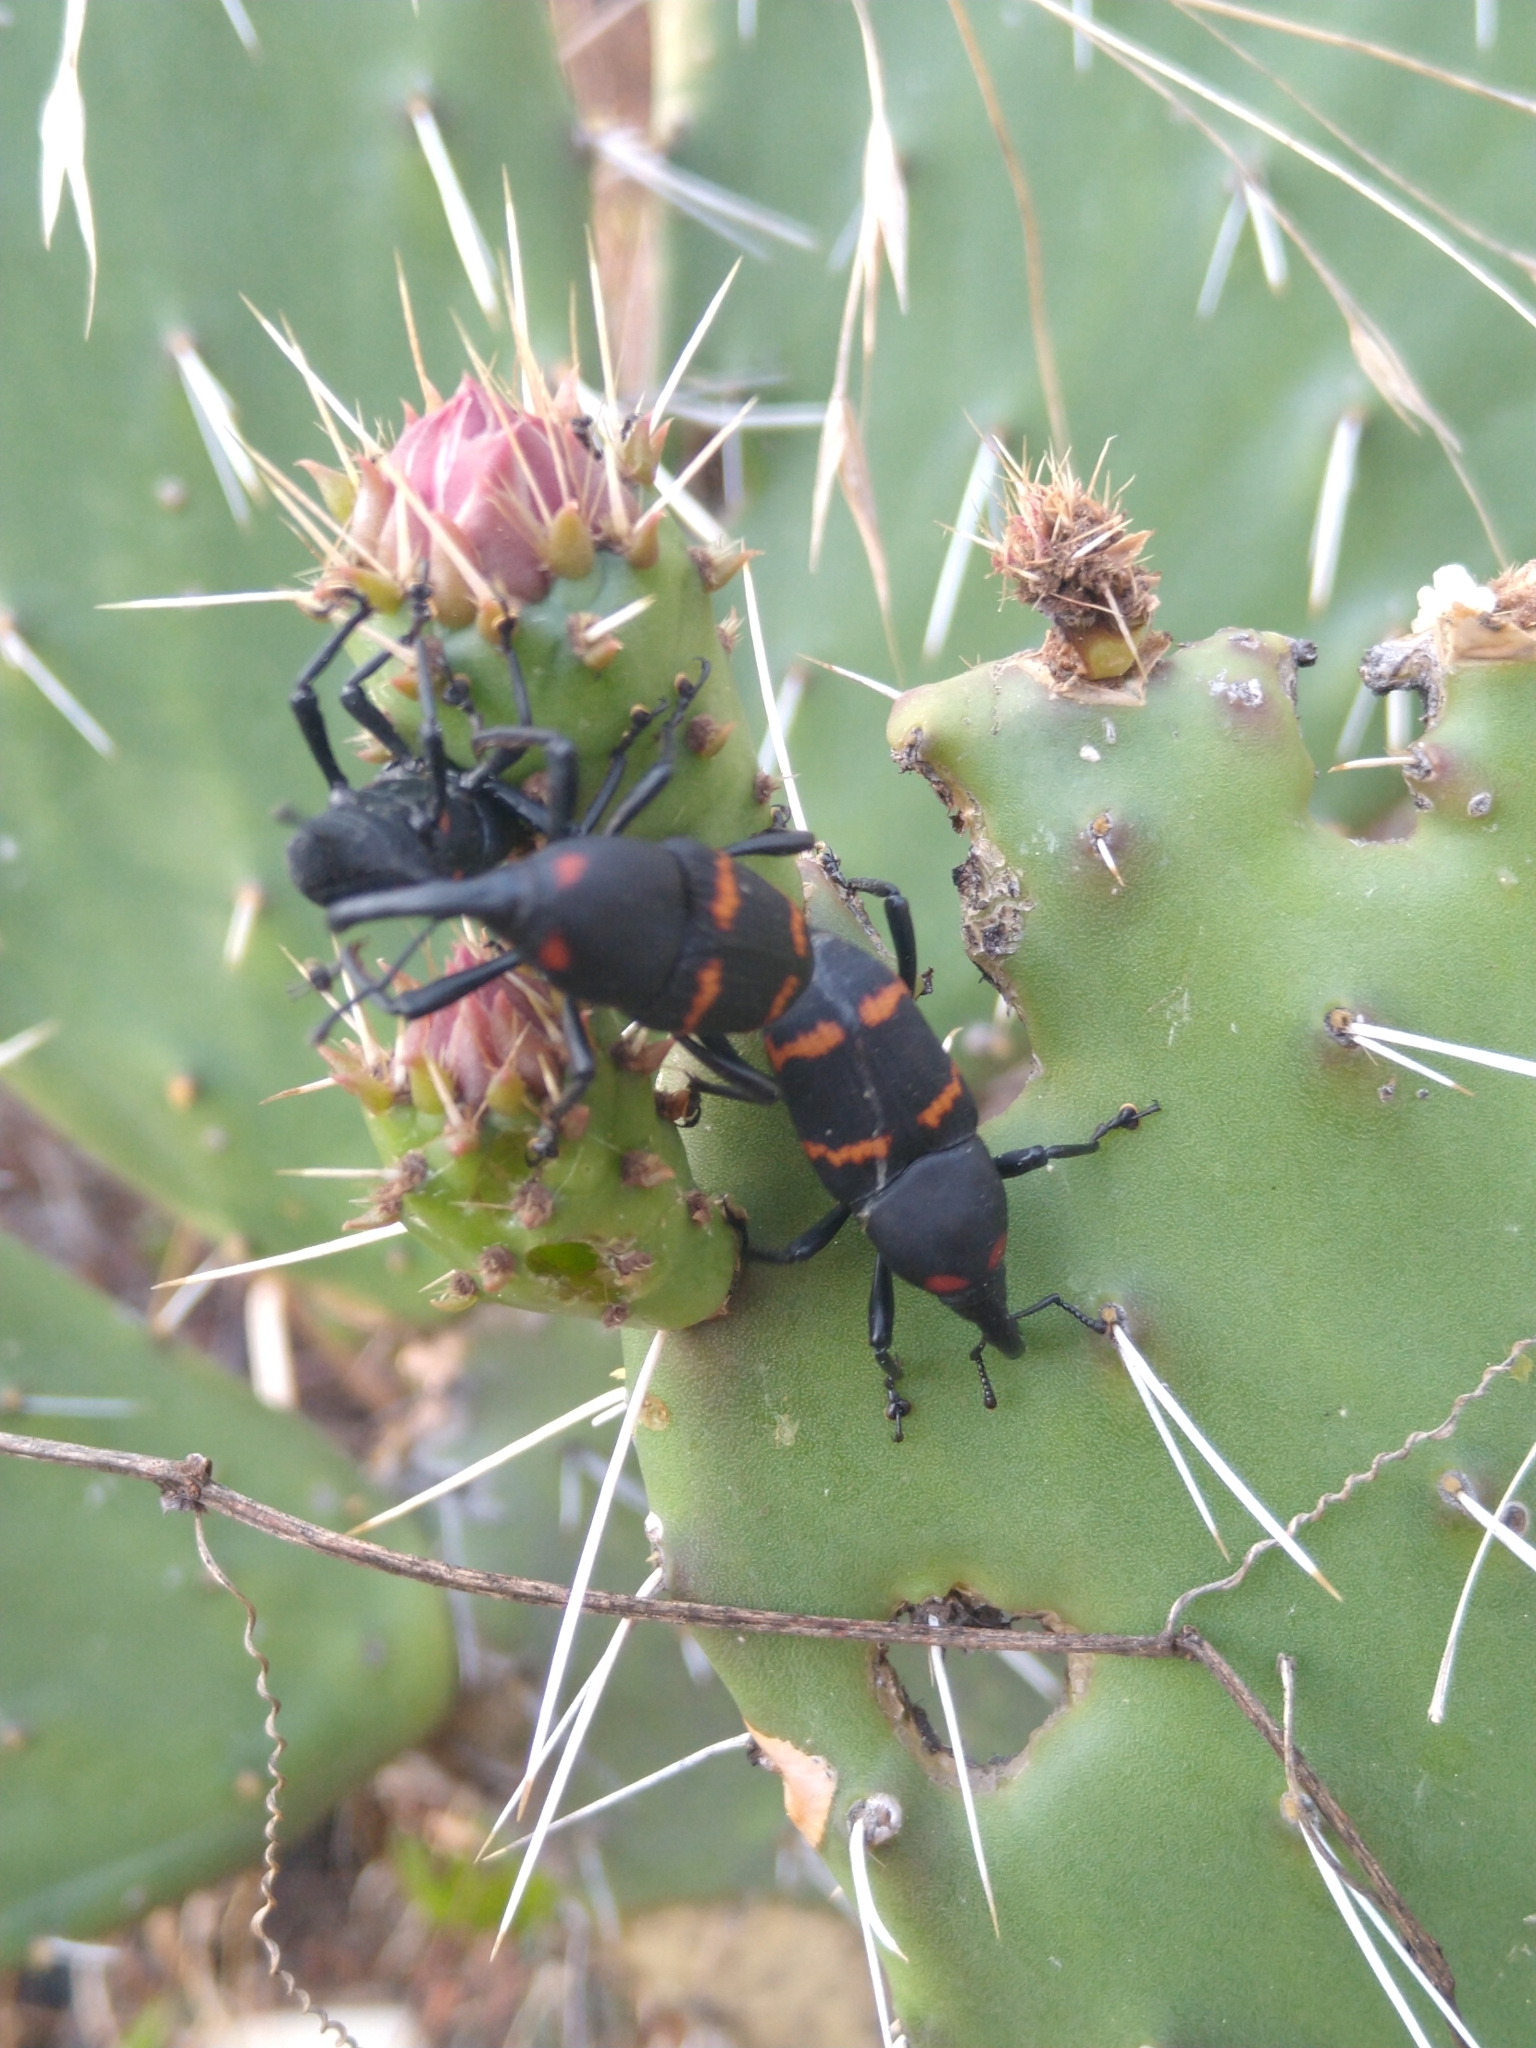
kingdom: Animalia
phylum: Arthropoda
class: Insecta
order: Coleoptera
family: Dryophthoridae
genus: Cactophagus
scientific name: Cactophagus spinolae
